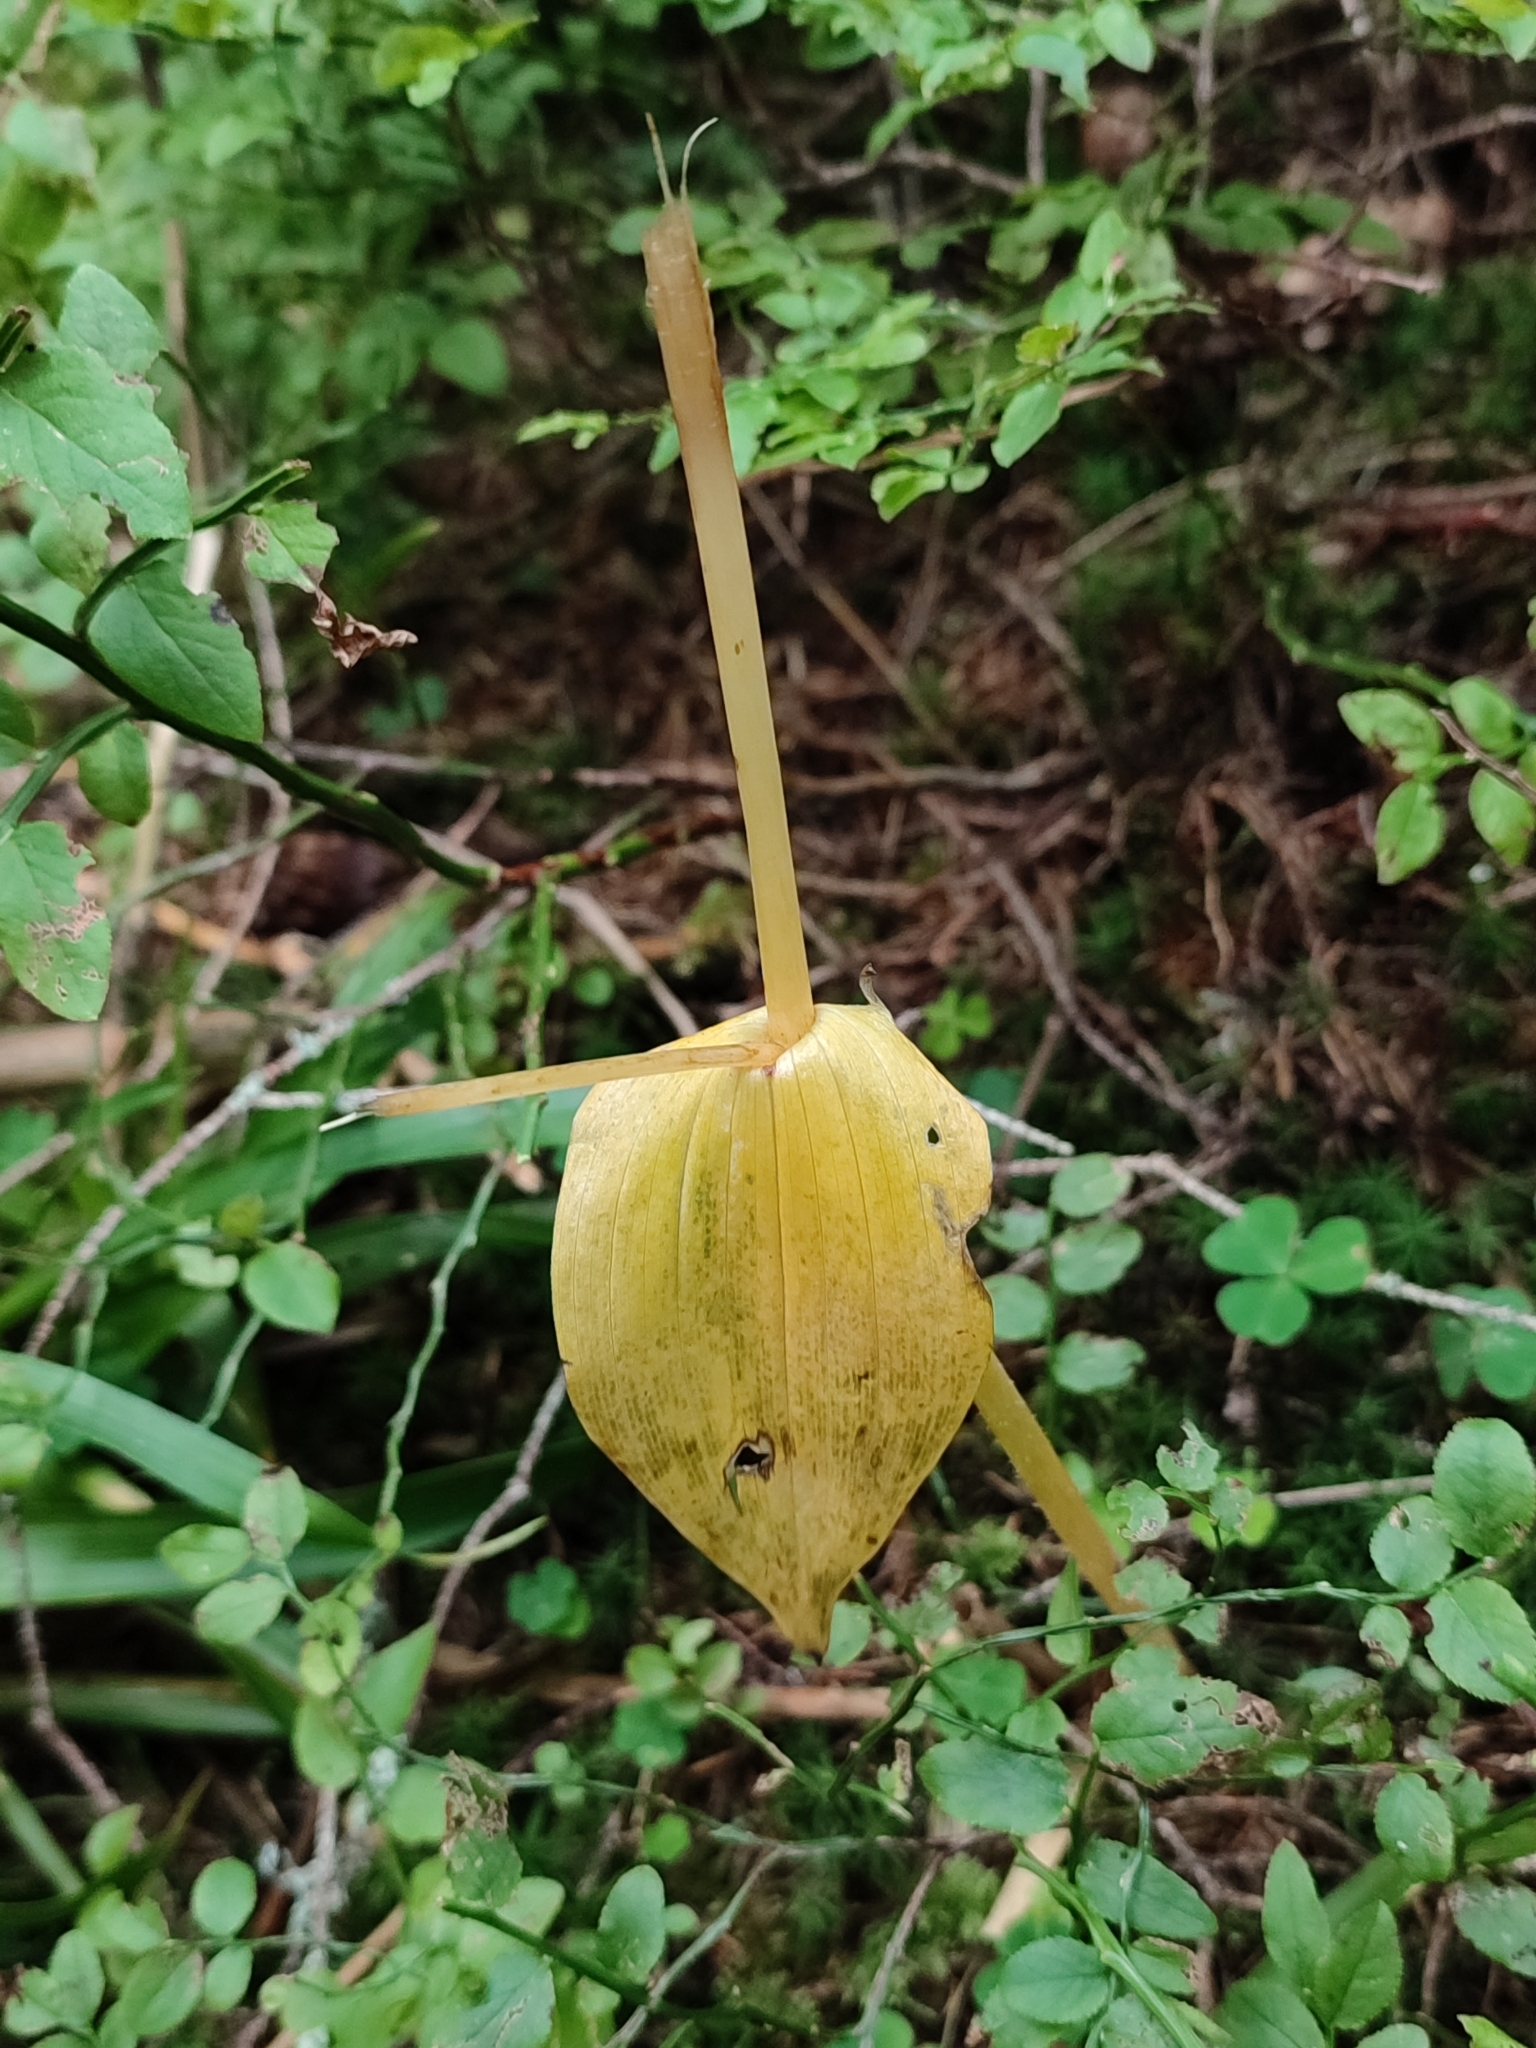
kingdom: Plantae
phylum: Tracheophyta
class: Liliopsida
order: Liliales
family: Liliaceae
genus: Streptopus
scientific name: Streptopus amplexifolius
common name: Clasp twisted stalk
